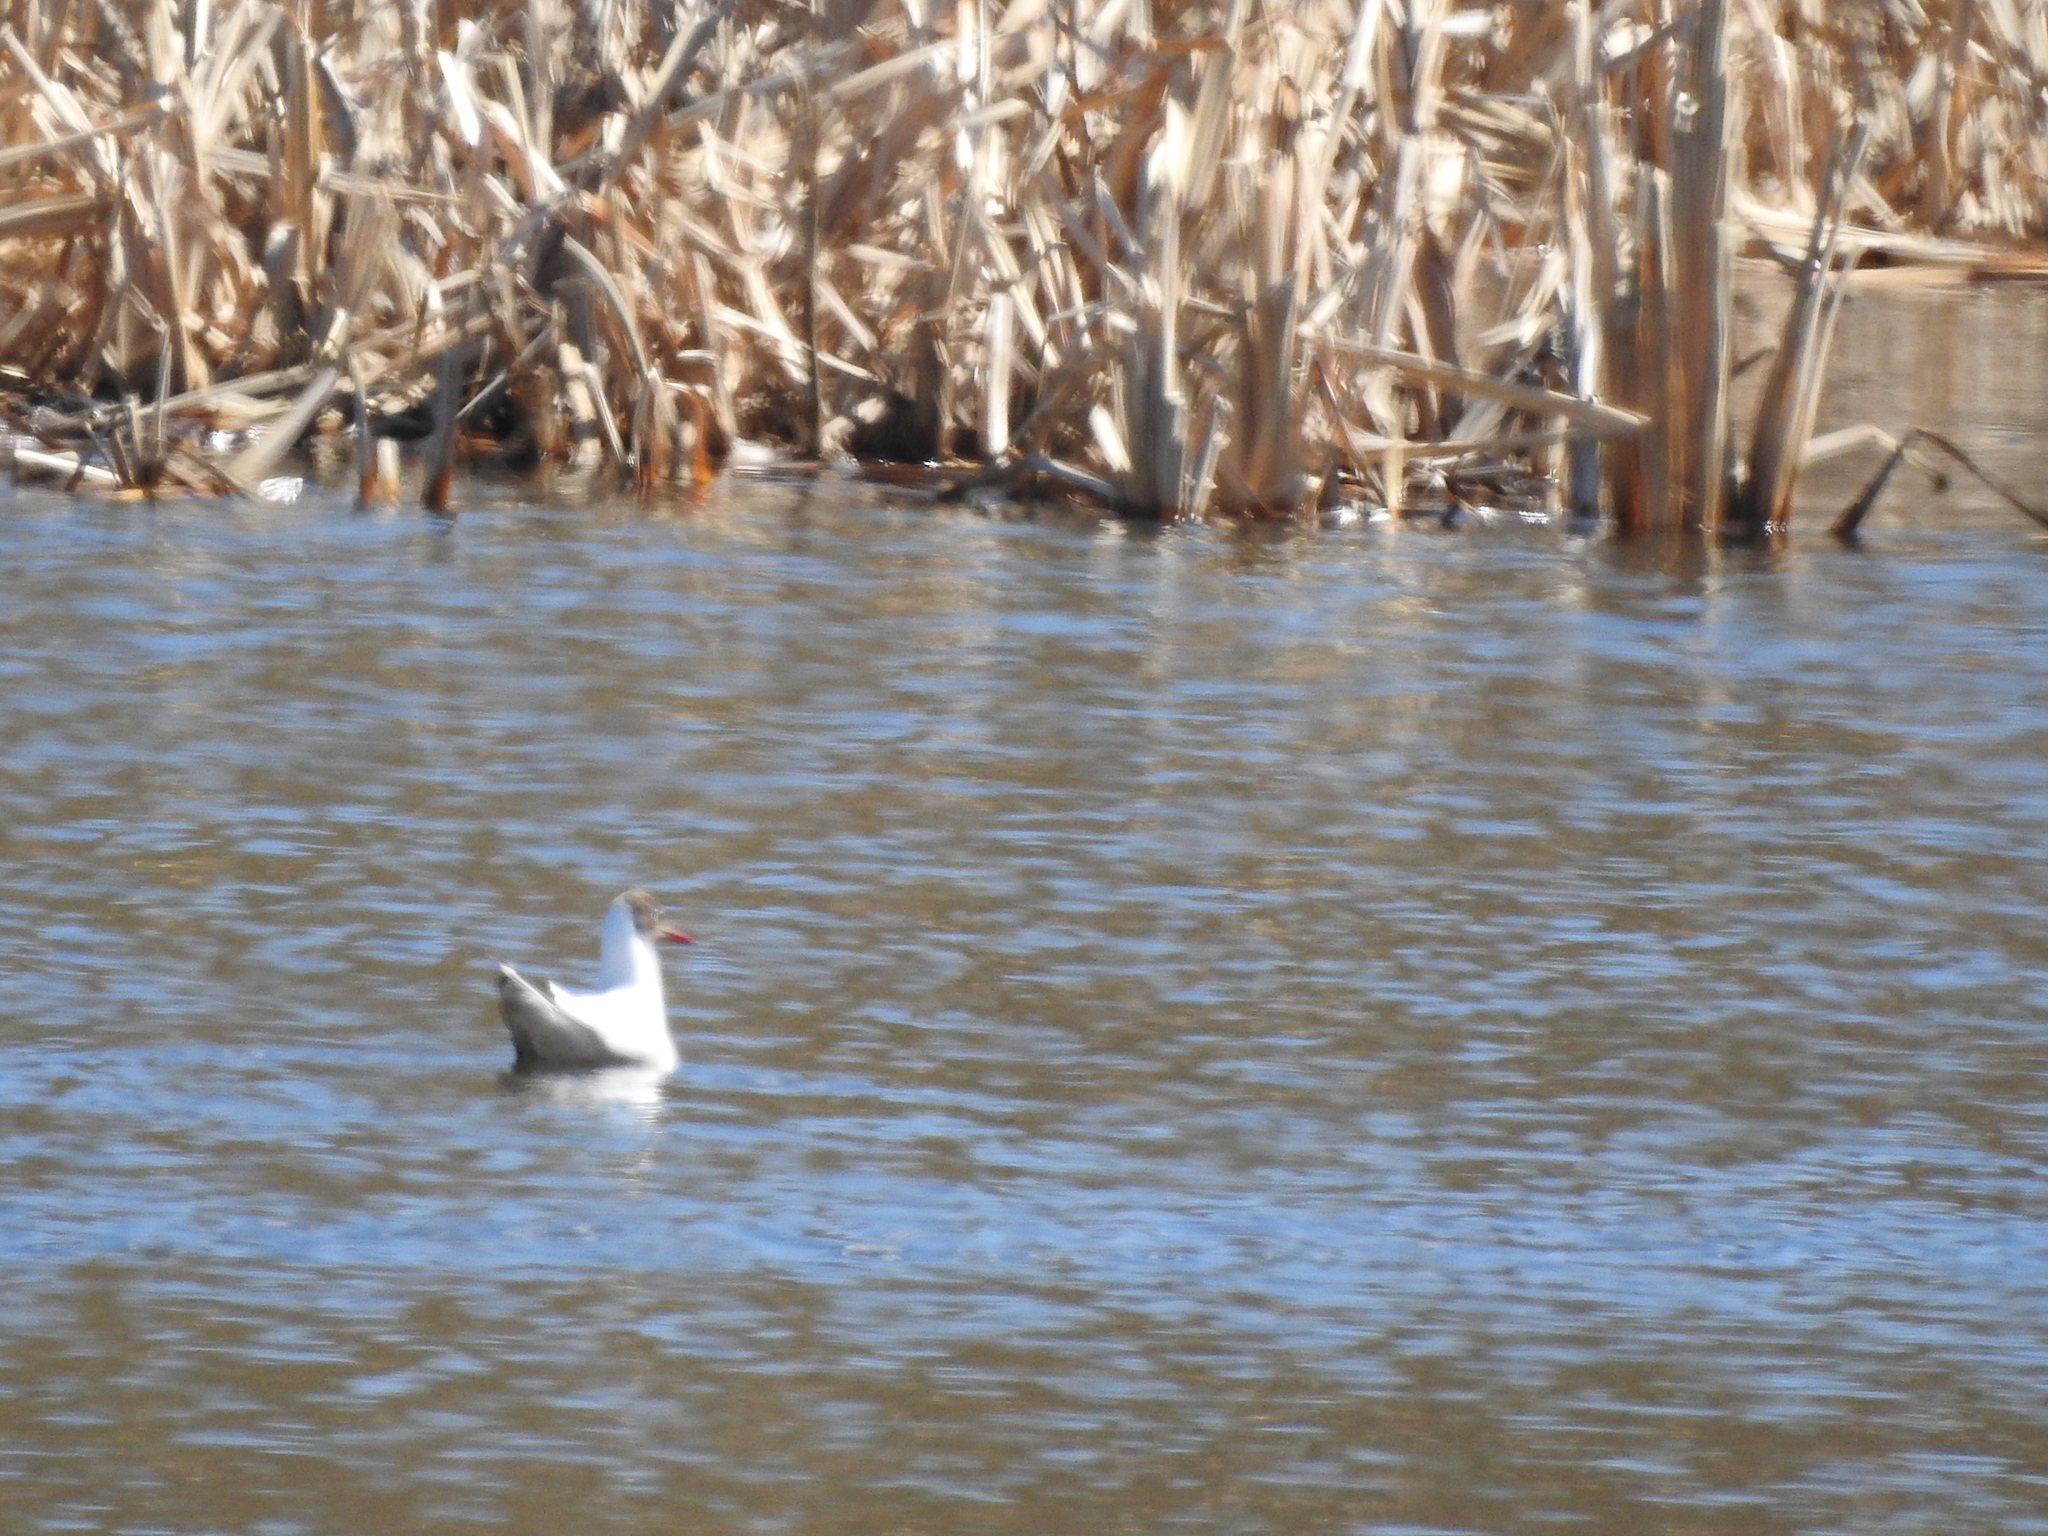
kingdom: Animalia
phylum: Chordata
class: Aves
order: Charadriiformes
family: Laridae
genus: Chroicocephalus
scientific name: Chroicocephalus ridibundus
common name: Black-headed gull
